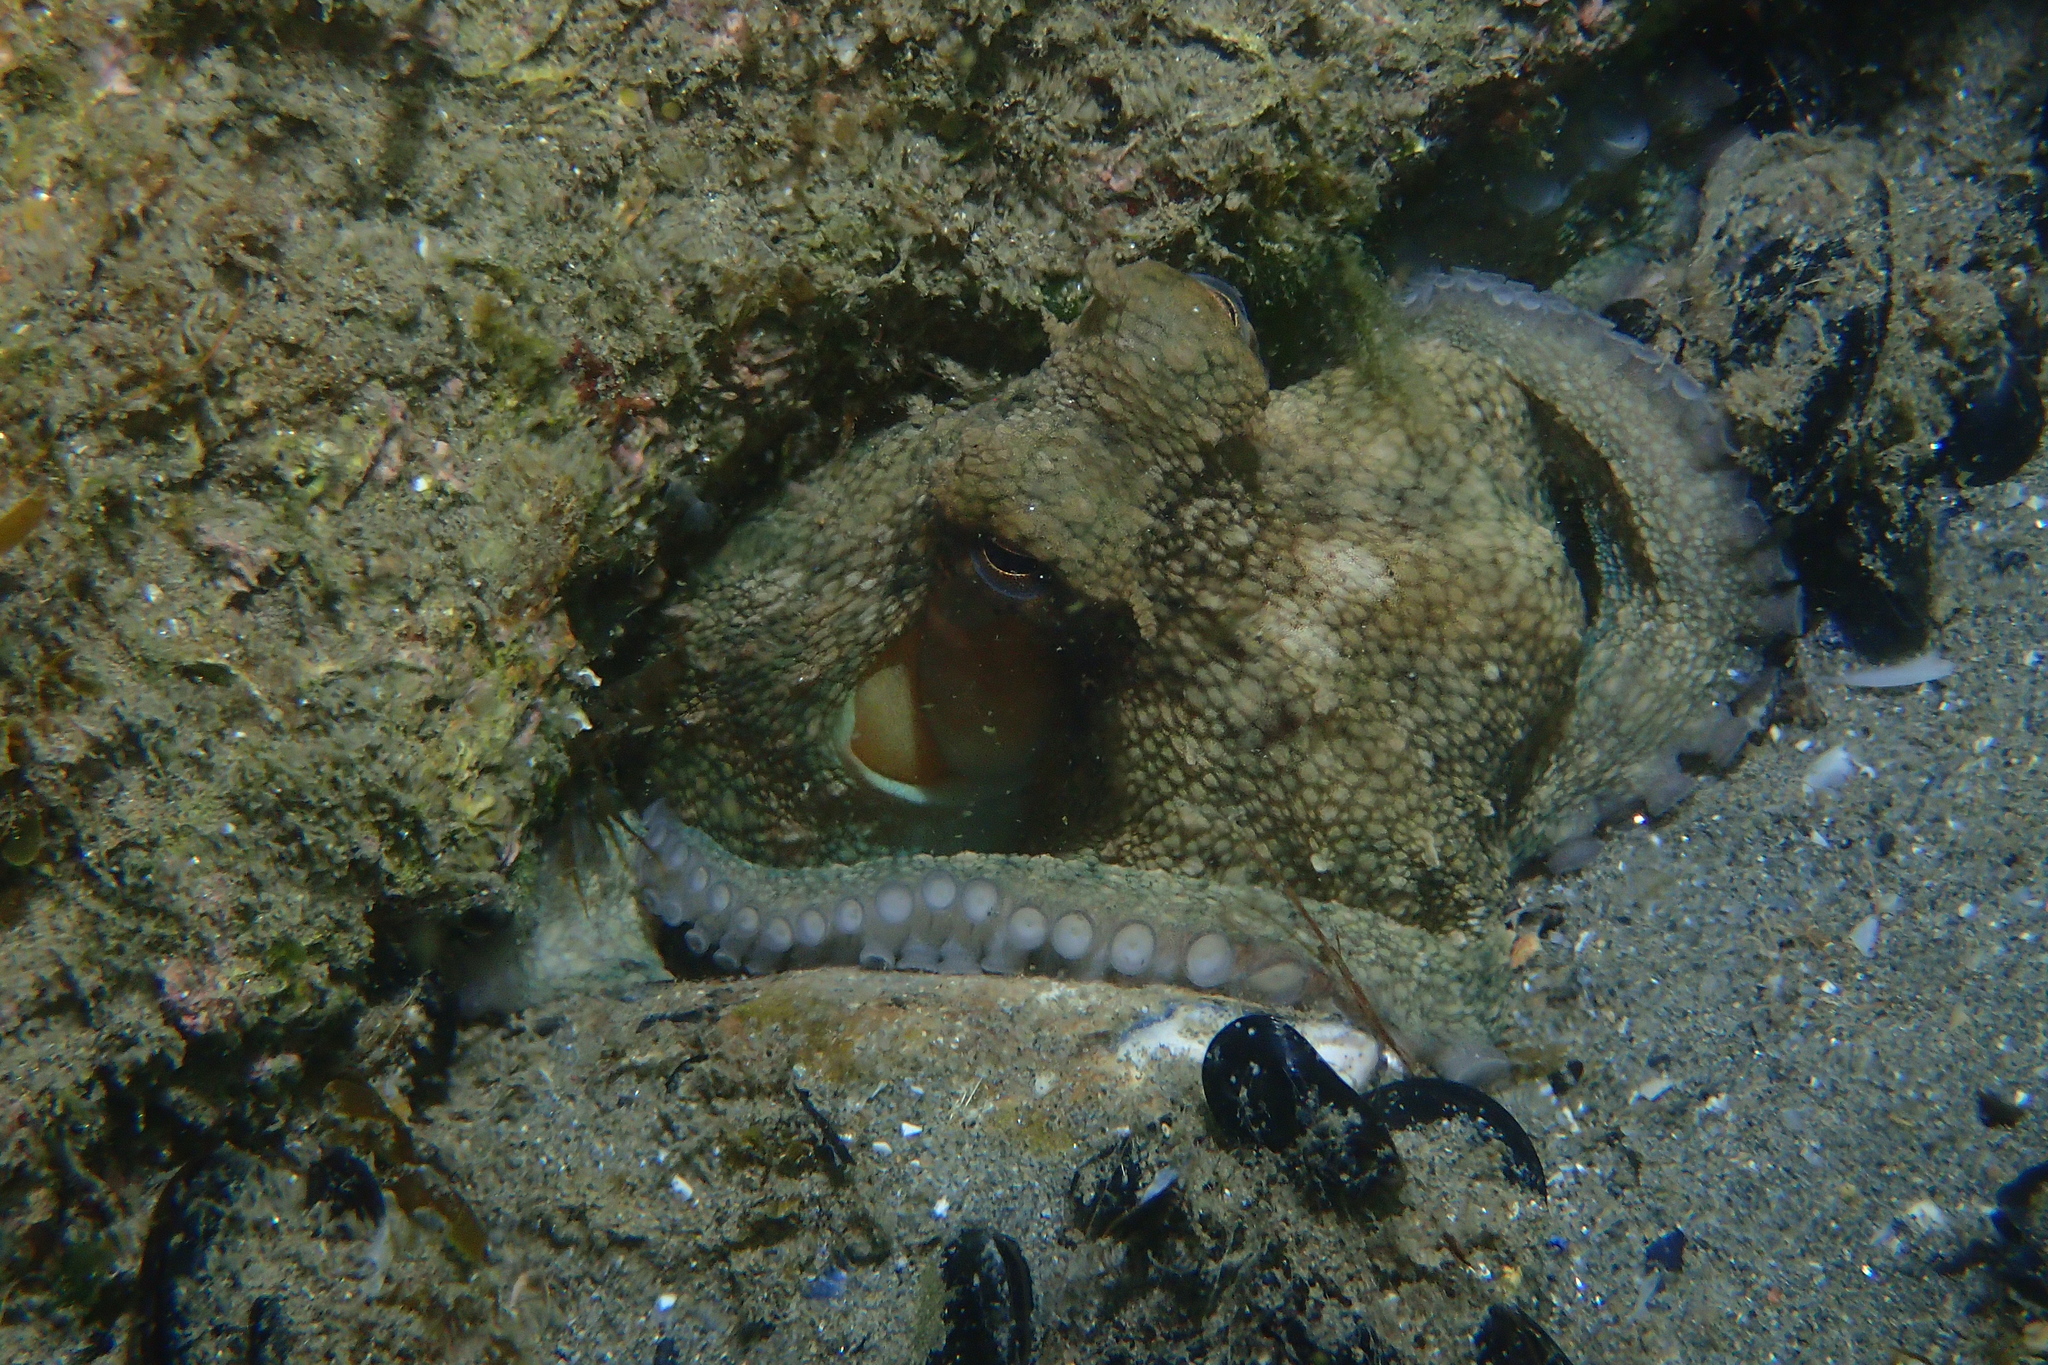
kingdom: Animalia
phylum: Mollusca
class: Cephalopoda
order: Octopoda
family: Octopodidae
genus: Octopus
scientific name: Octopus vulgaris
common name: Common octopus
